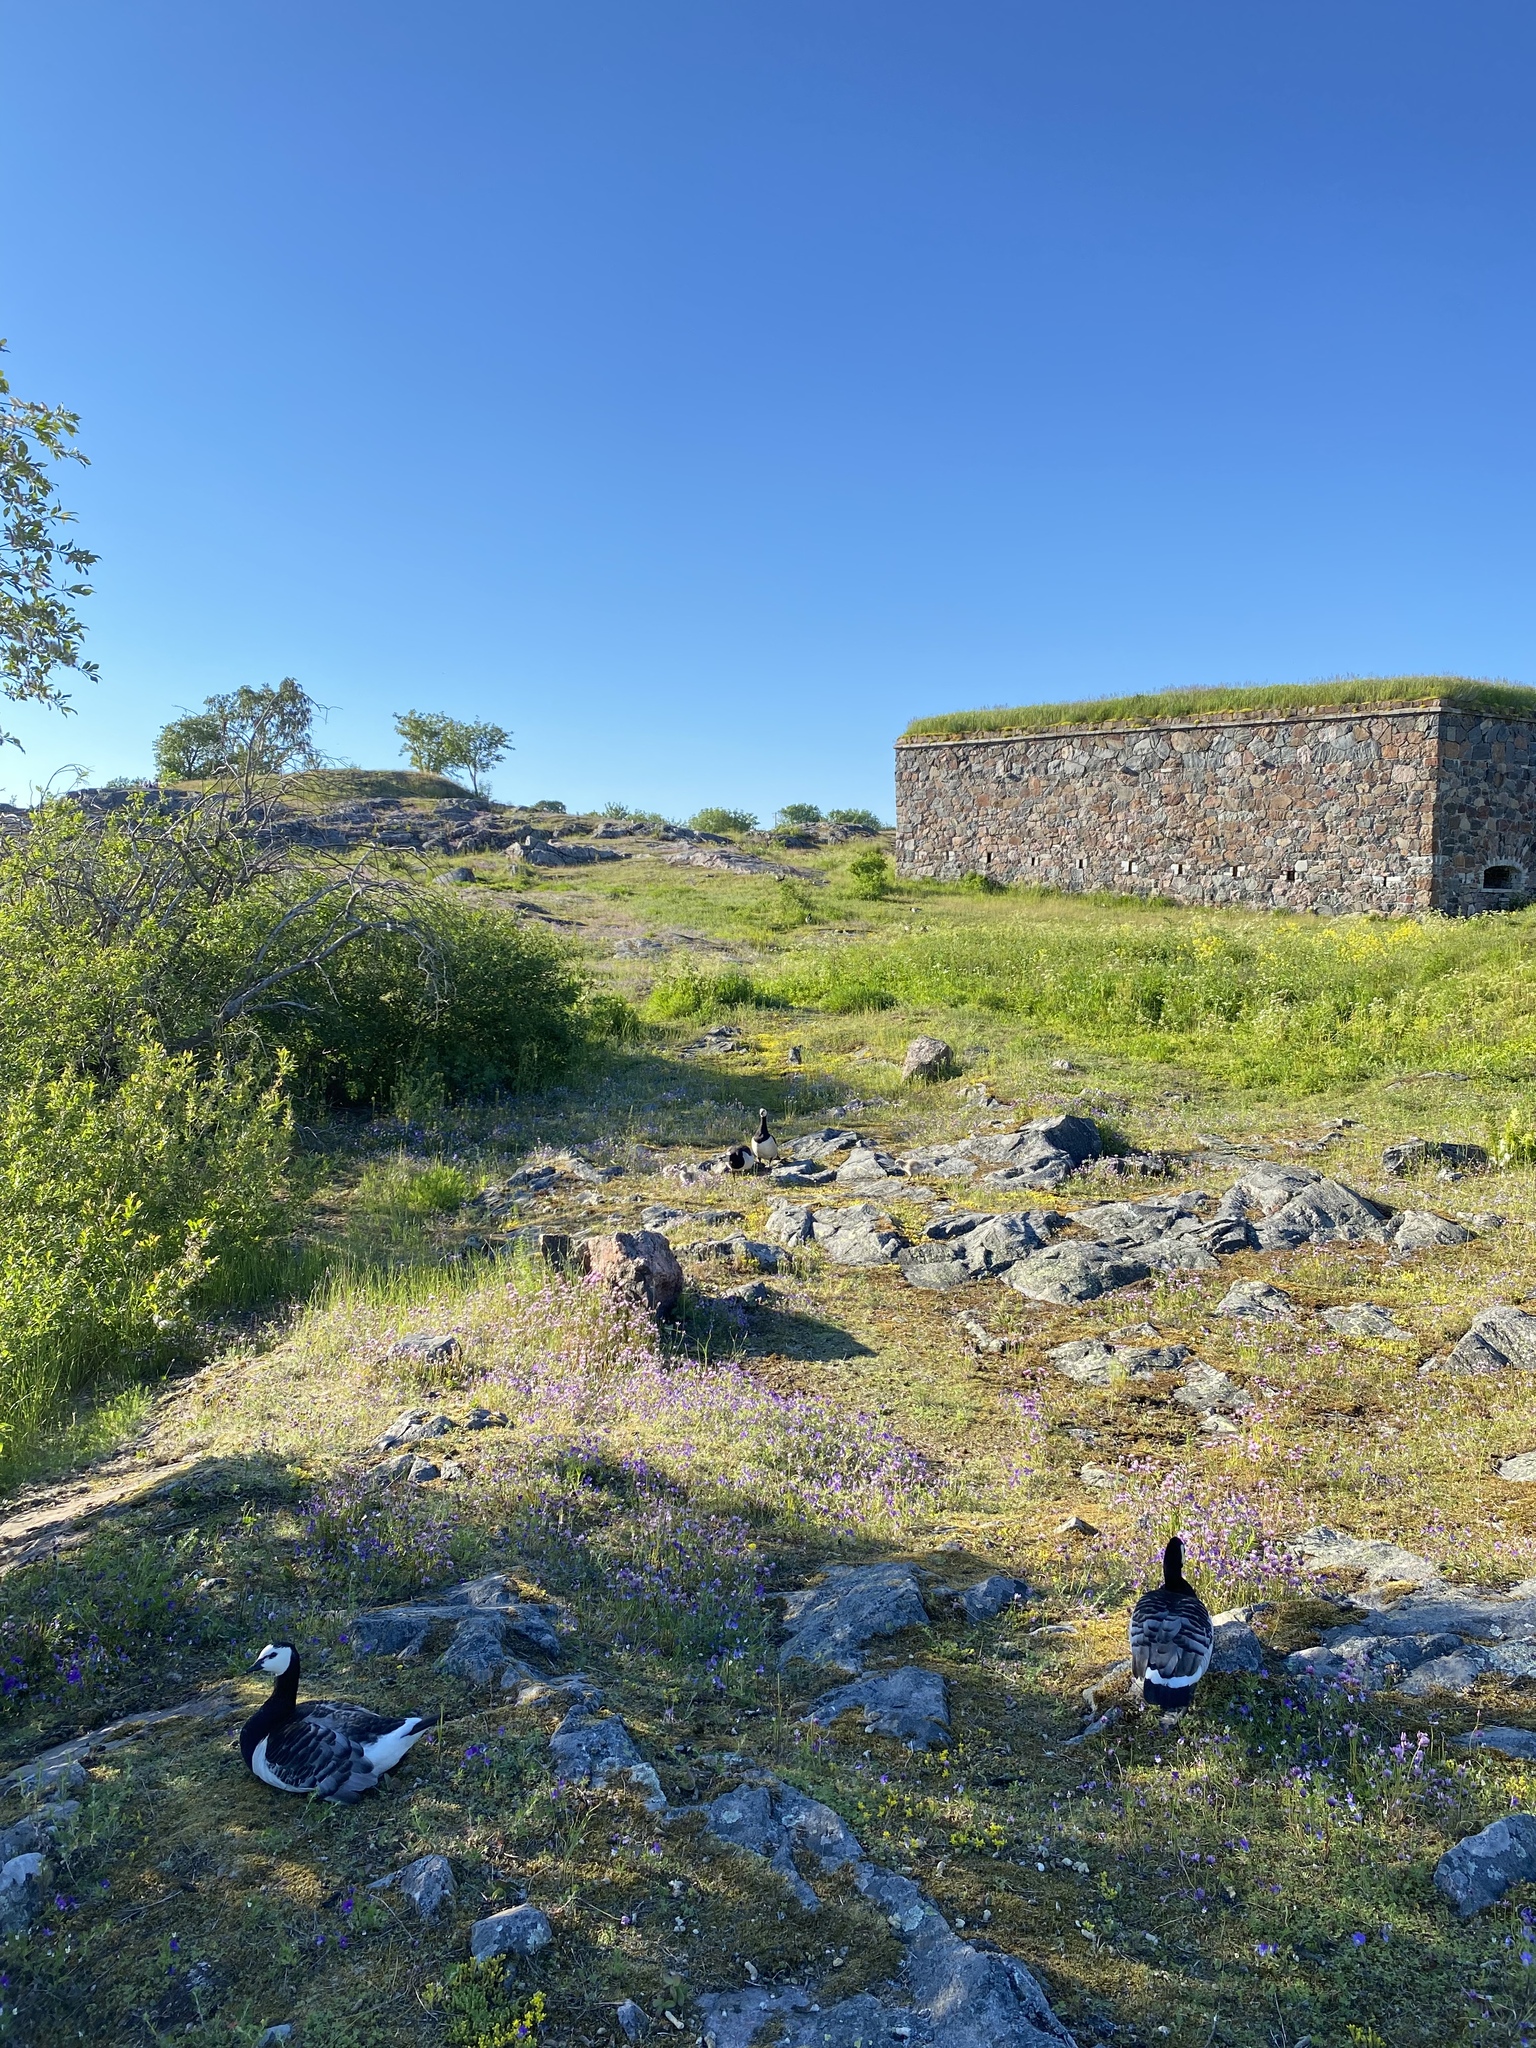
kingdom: Animalia
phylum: Chordata
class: Aves
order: Anseriformes
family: Anatidae
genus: Branta
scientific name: Branta leucopsis
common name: Barnacle goose
